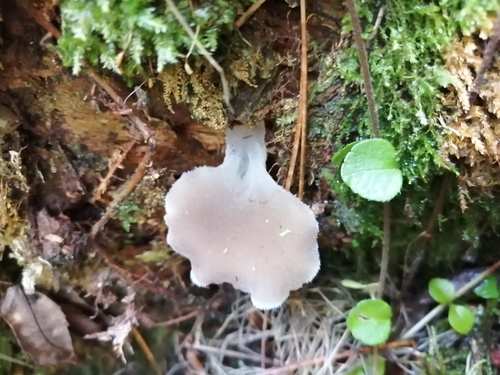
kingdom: Fungi
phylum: Basidiomycota
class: Agaricomycetes
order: Auriculariales
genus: Pseudohydnum
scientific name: Pseudohydnum gelatinosum
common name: Jelly tongue
